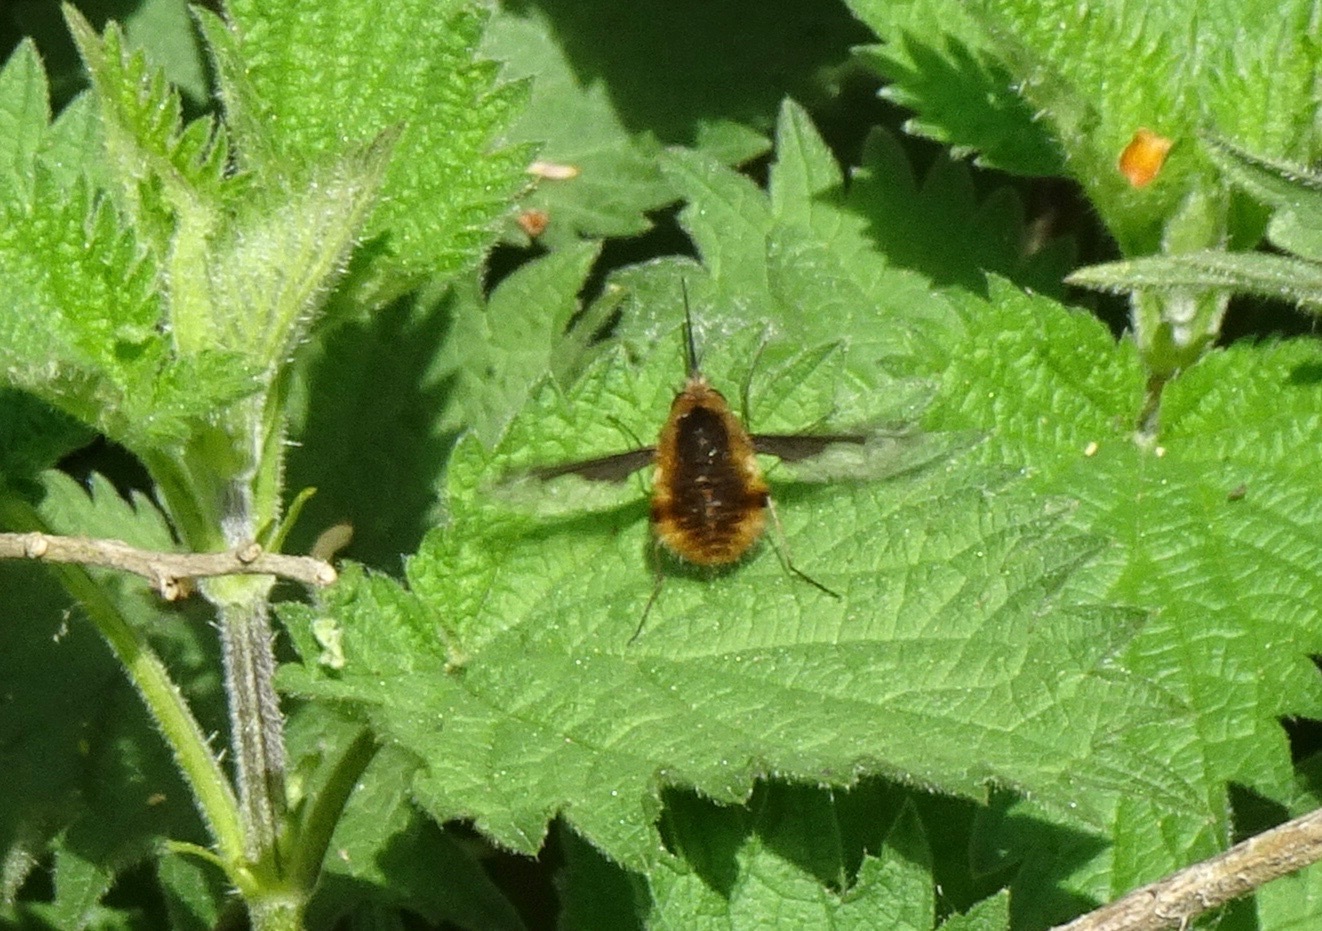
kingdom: Animalia
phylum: Arthropoda
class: Insecta
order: Diptera
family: Bombyliidae
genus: Bombylius
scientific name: Bombylius major
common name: Bee fly
